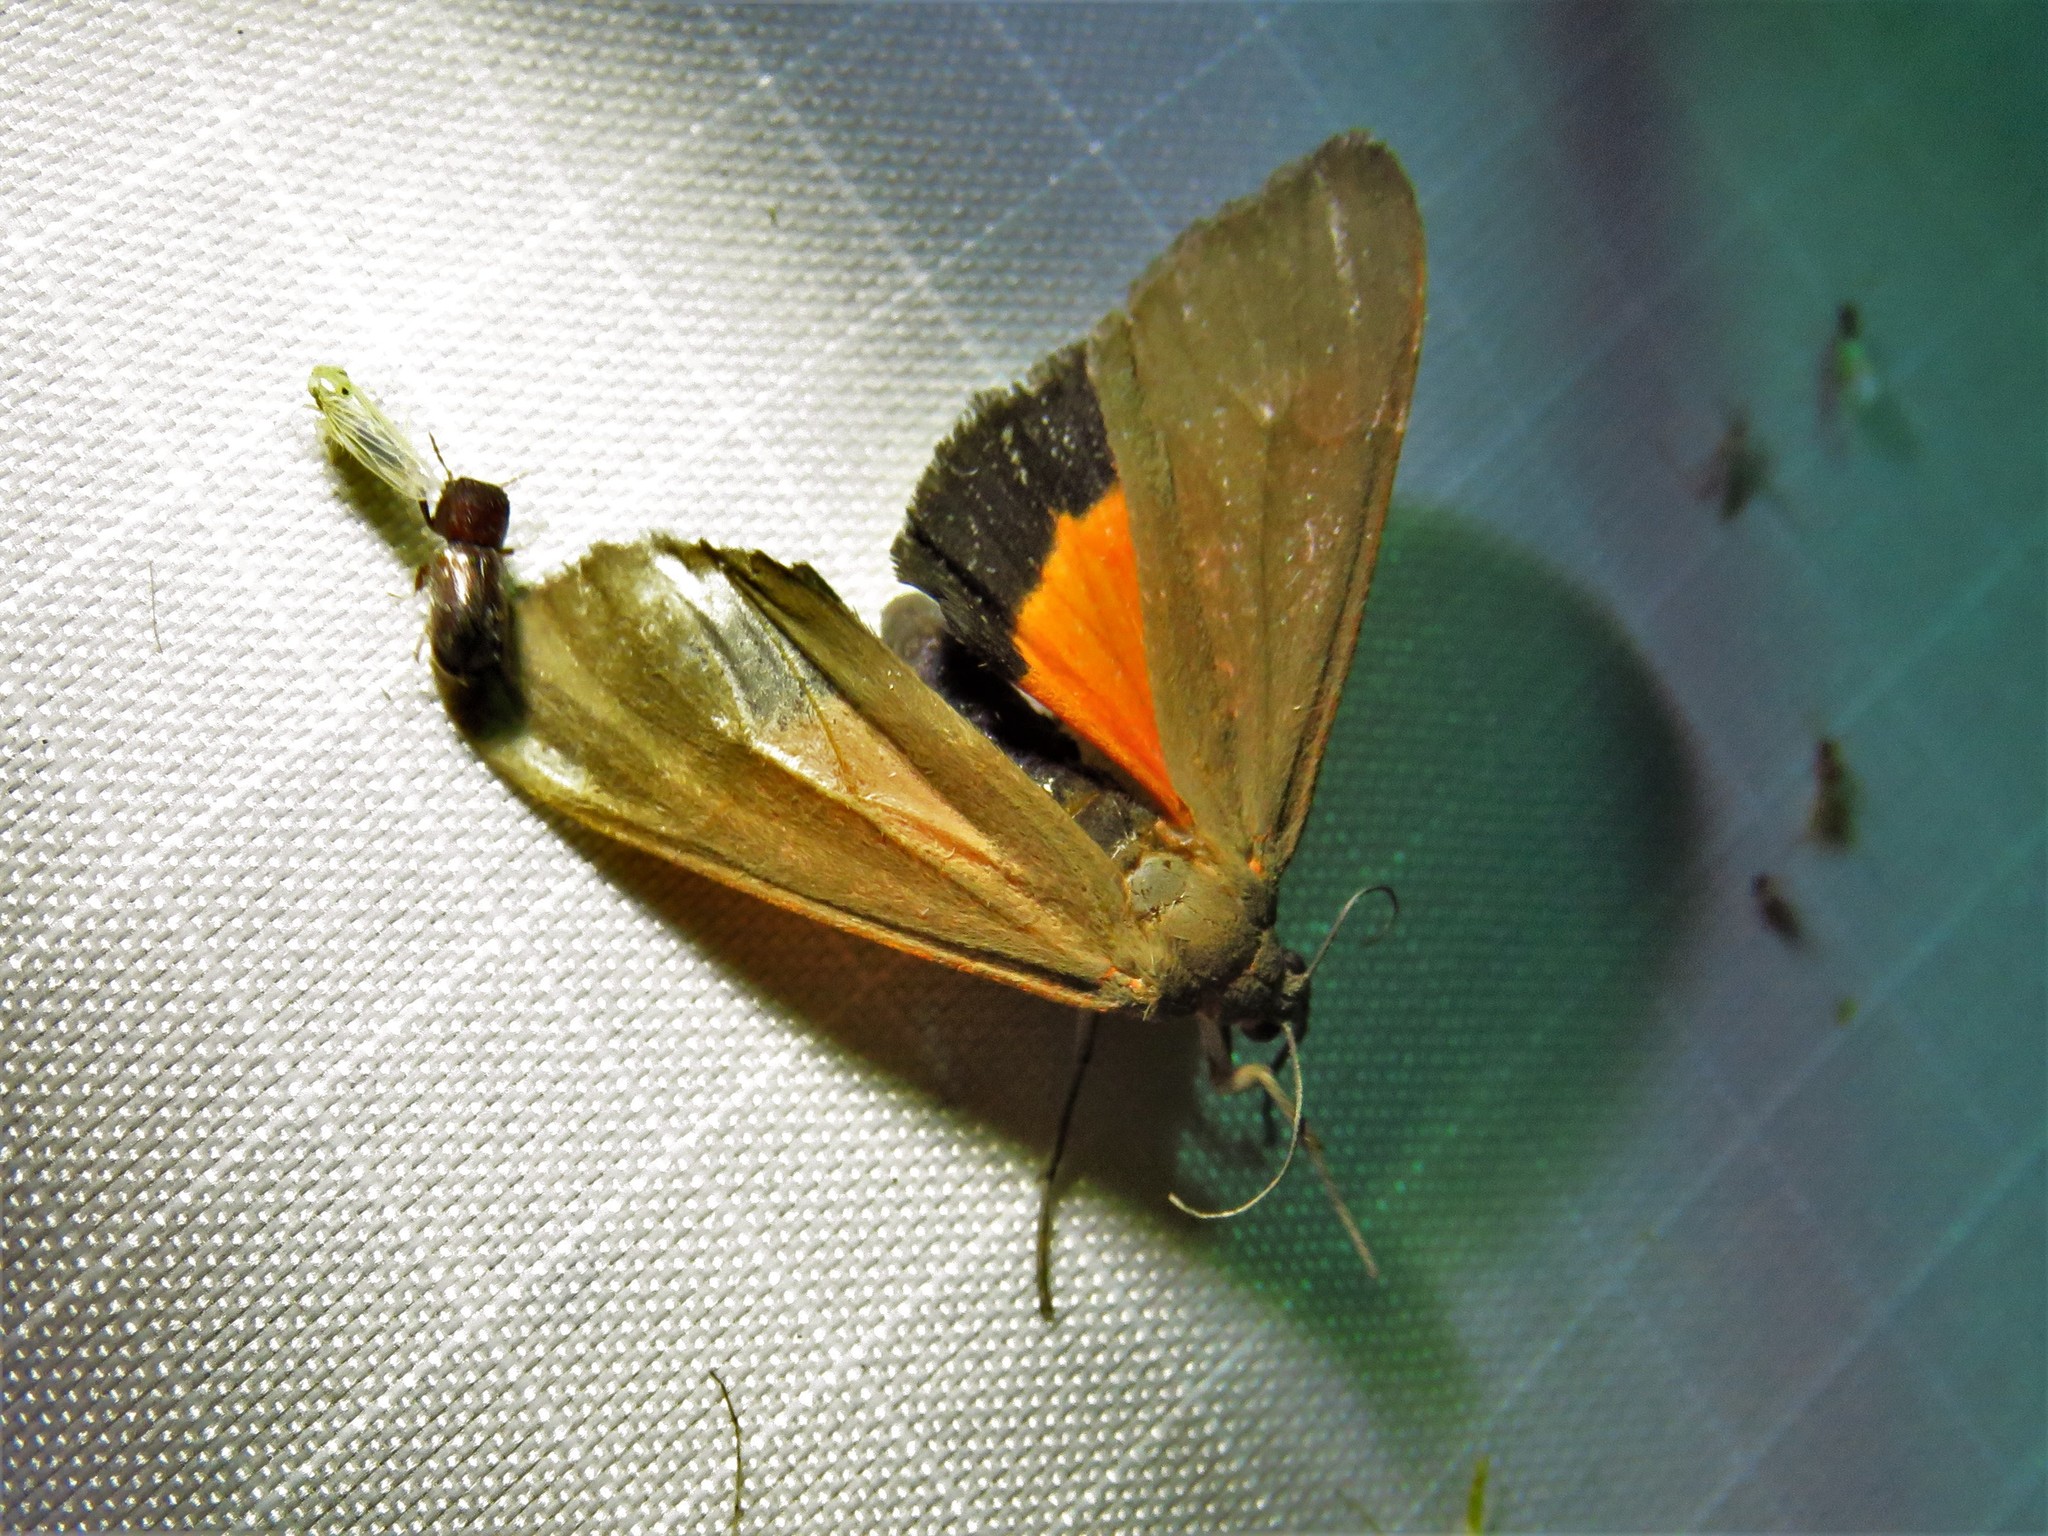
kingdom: Animalia
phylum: Arthropoda
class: Insecta
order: Lepidoptera
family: Erebidae
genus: Virbia
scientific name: Virbia costata
